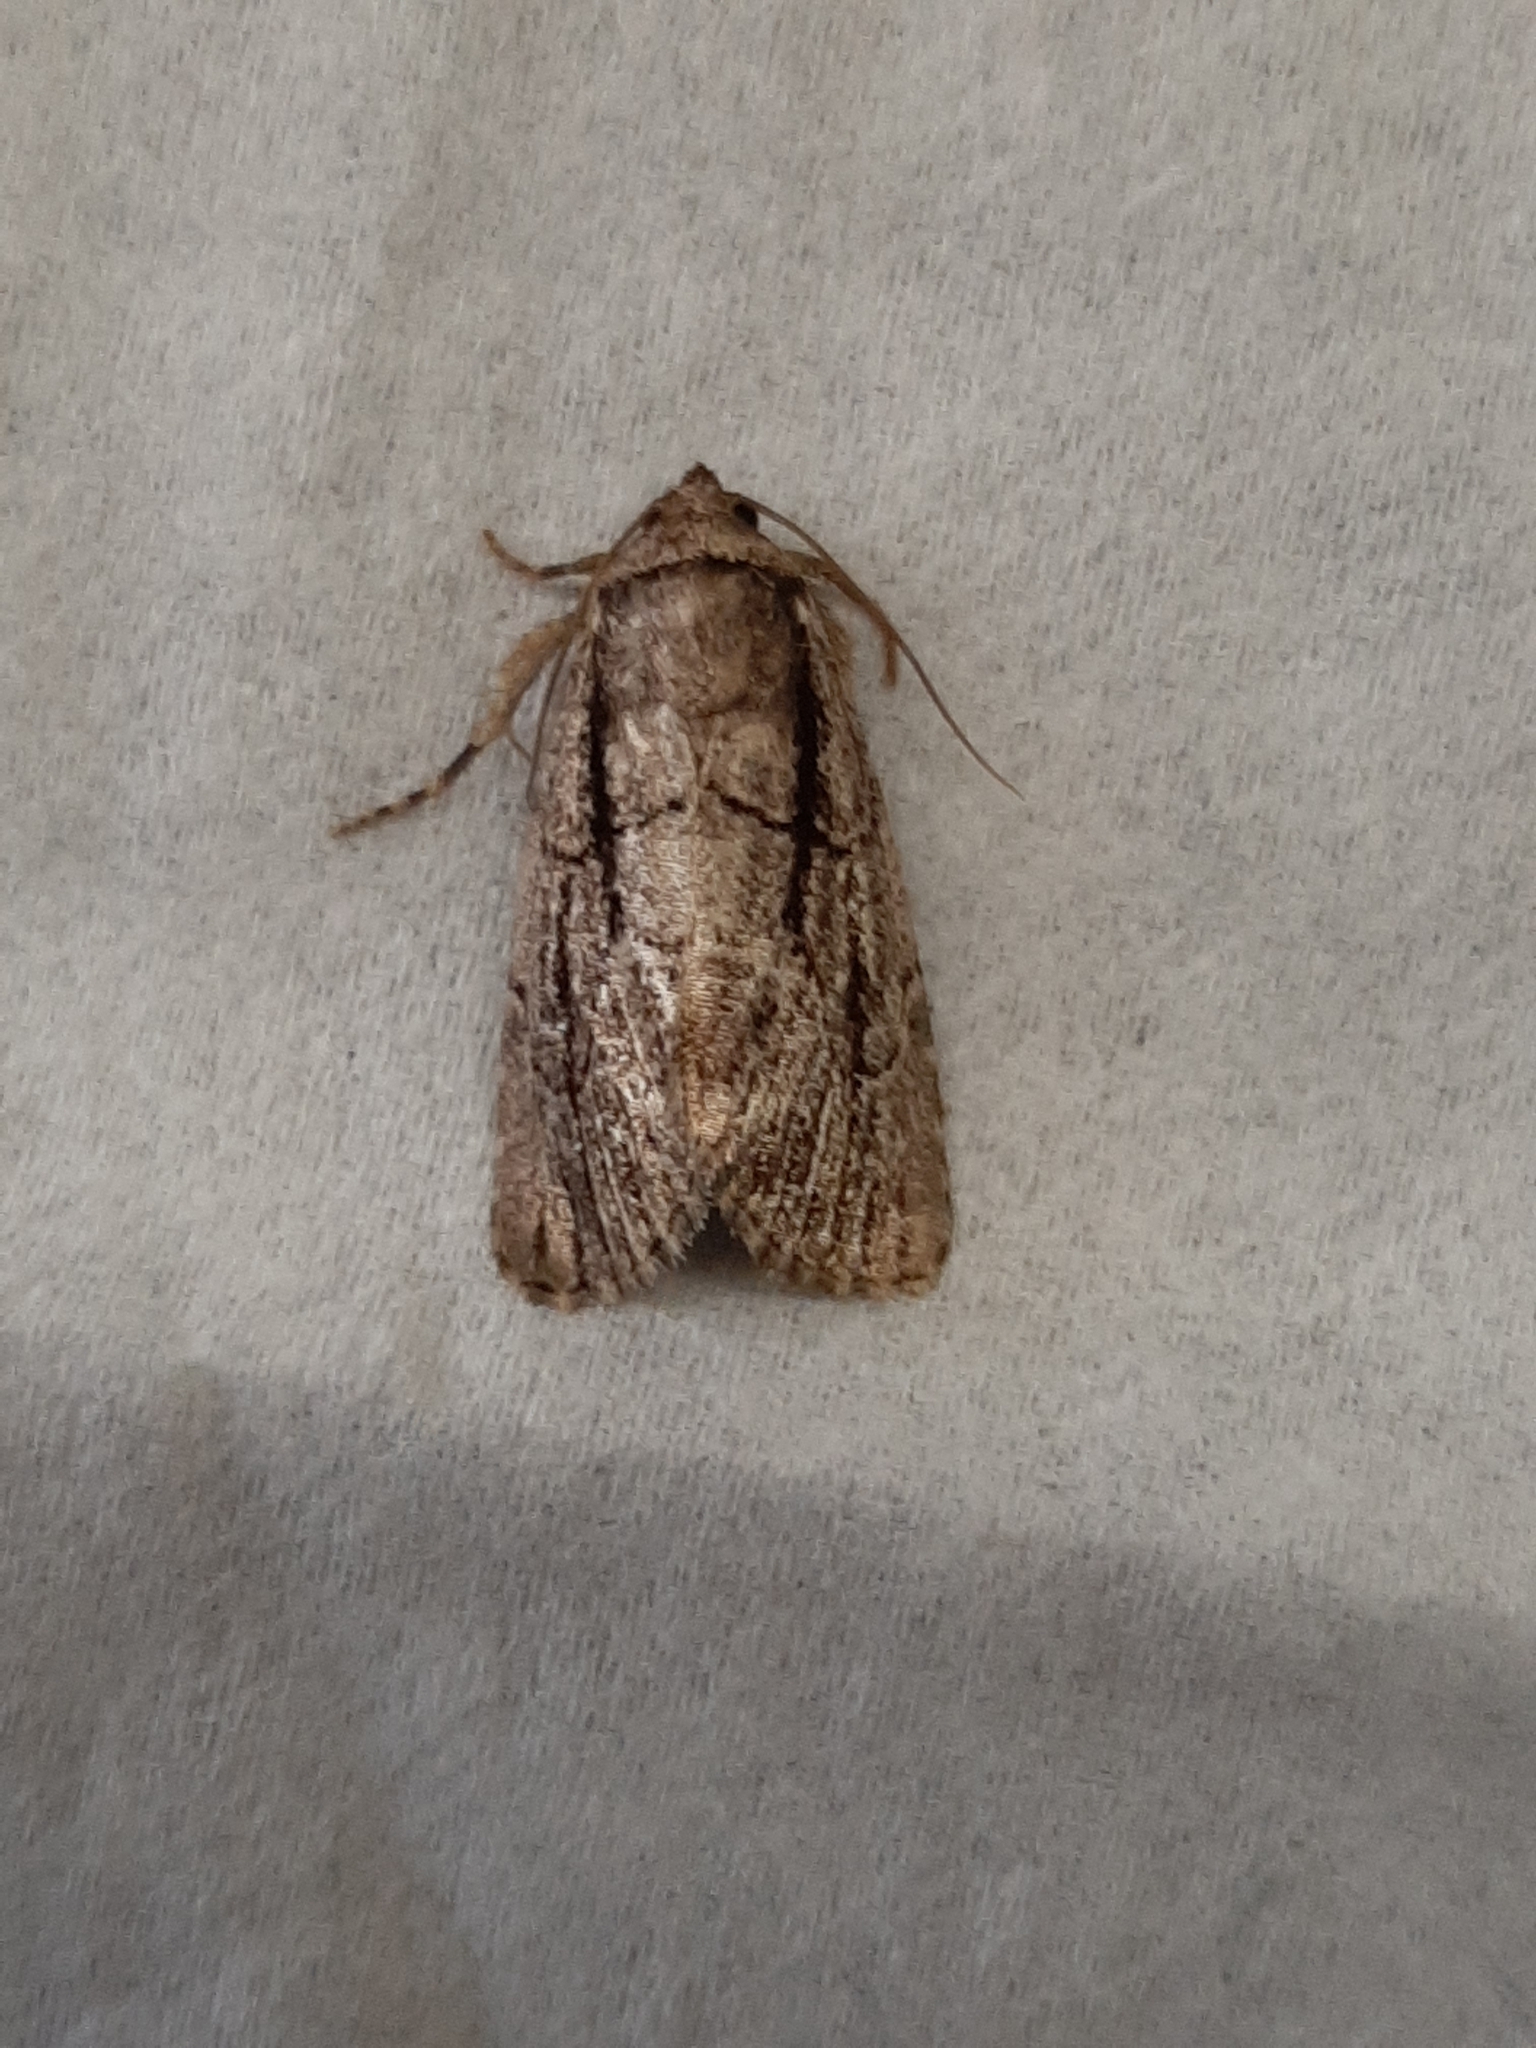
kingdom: Animalia
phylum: Arthropoda
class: Insecta
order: Lepidoptera
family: Noctuidae
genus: Sympistis
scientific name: Sympistis badistriga
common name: Brown-lined sallow moth
